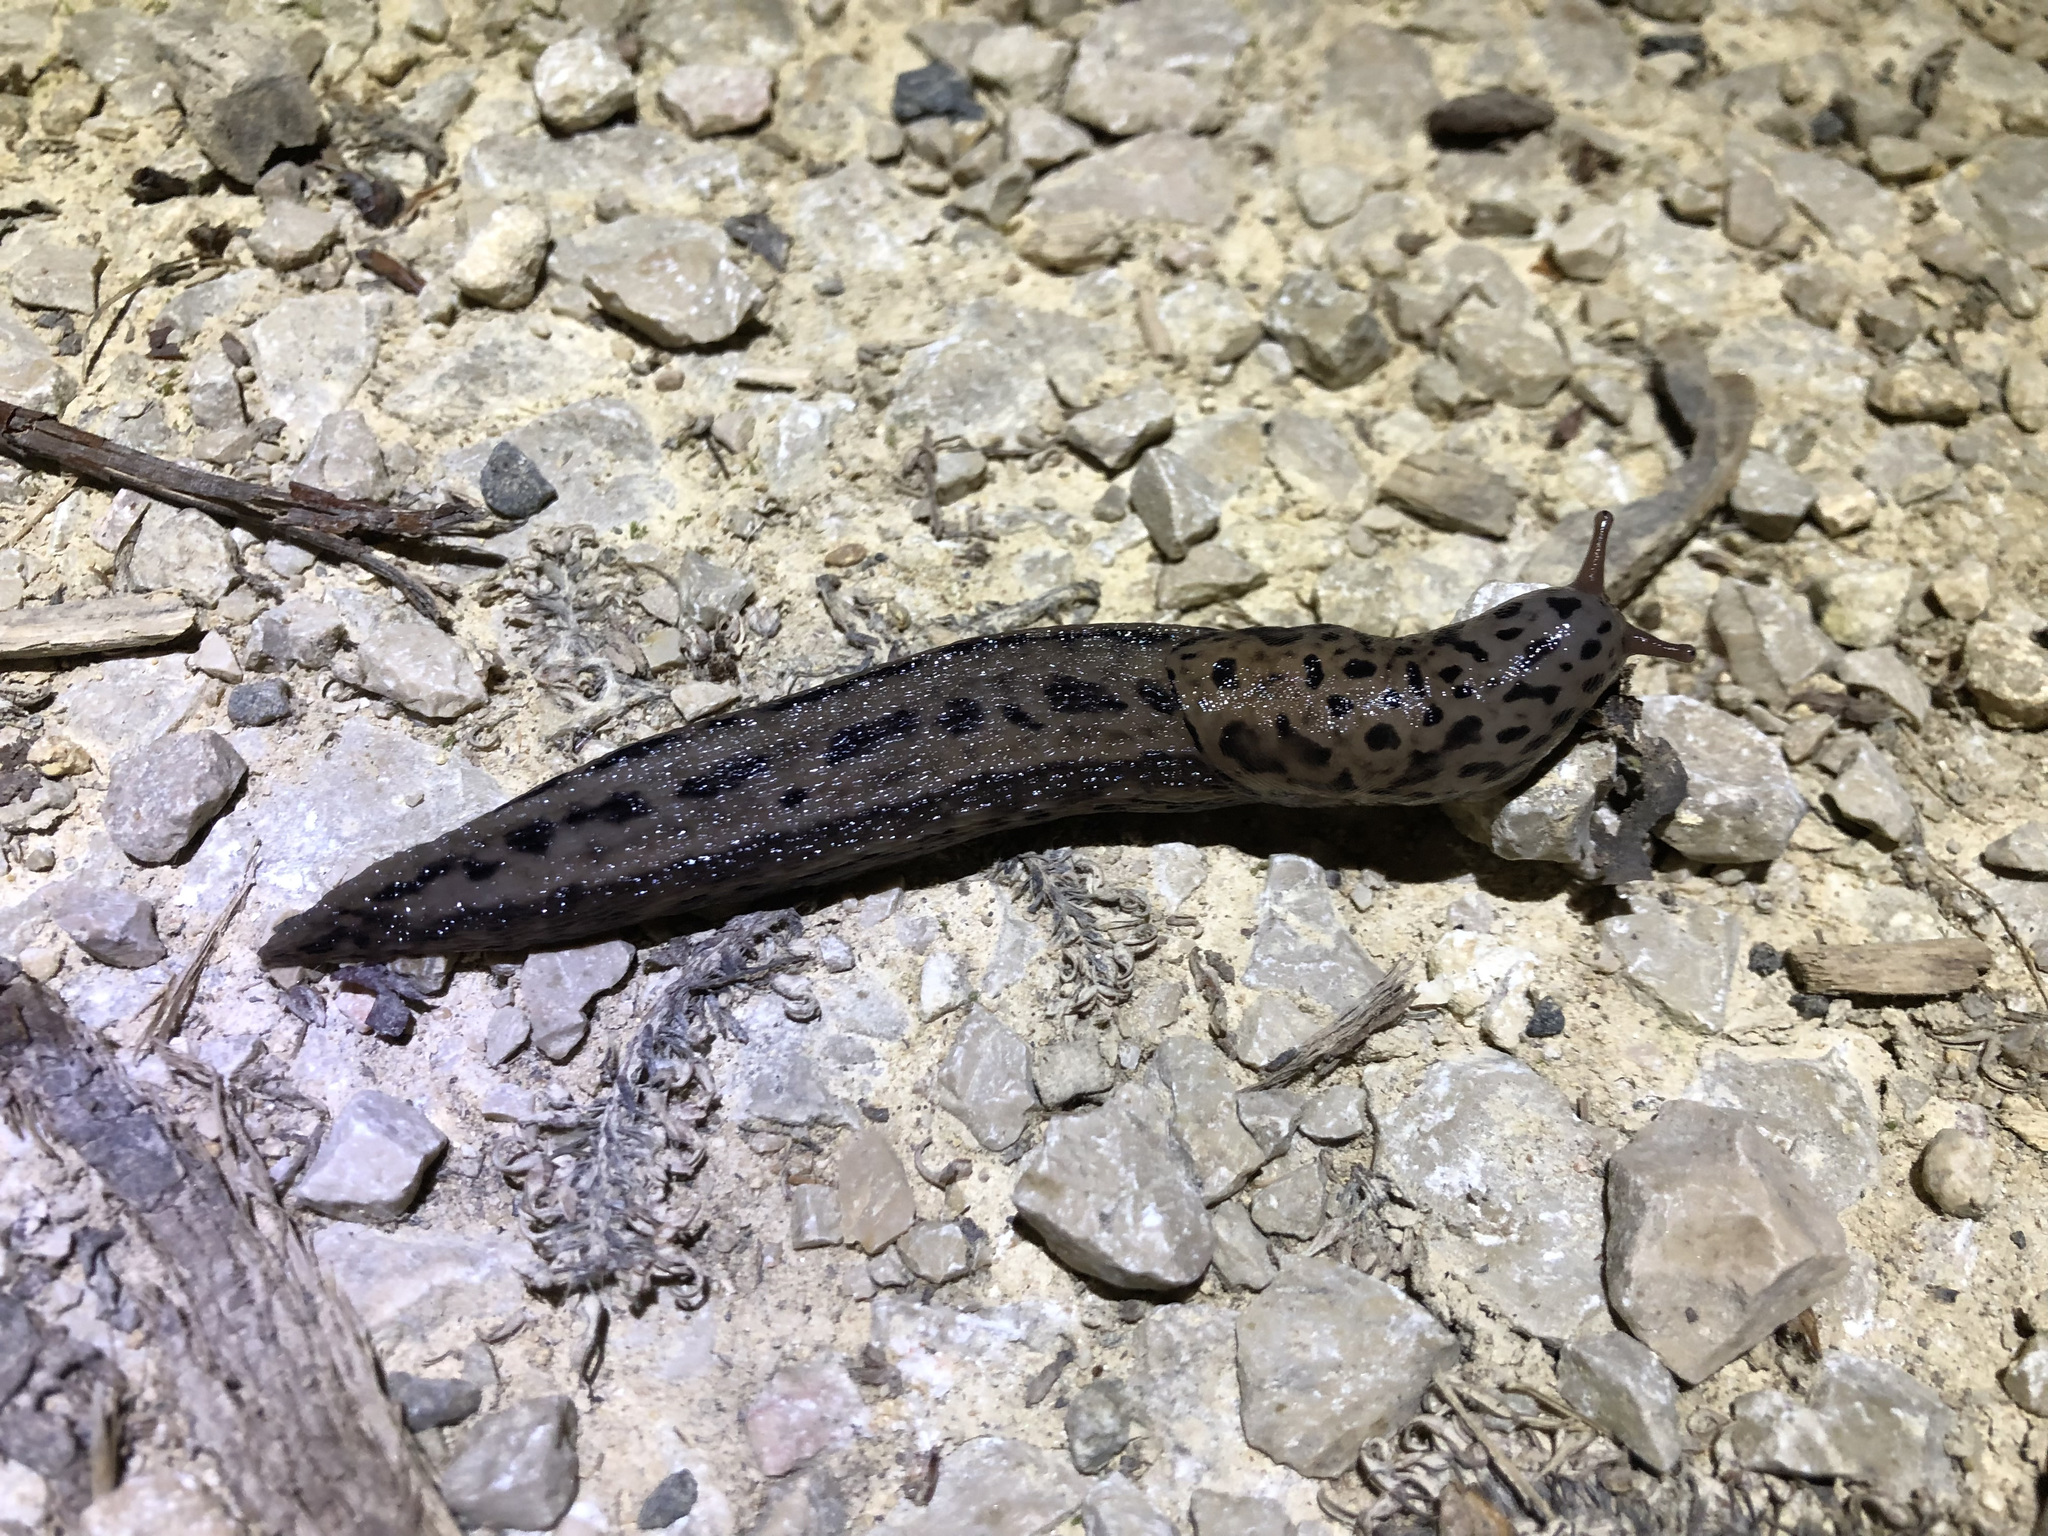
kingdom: Animalia
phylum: Mollusca
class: Gastropoda
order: Stylommatophora
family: Limacidae
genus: Limax
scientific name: Limax maximus
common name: Great grey slug
